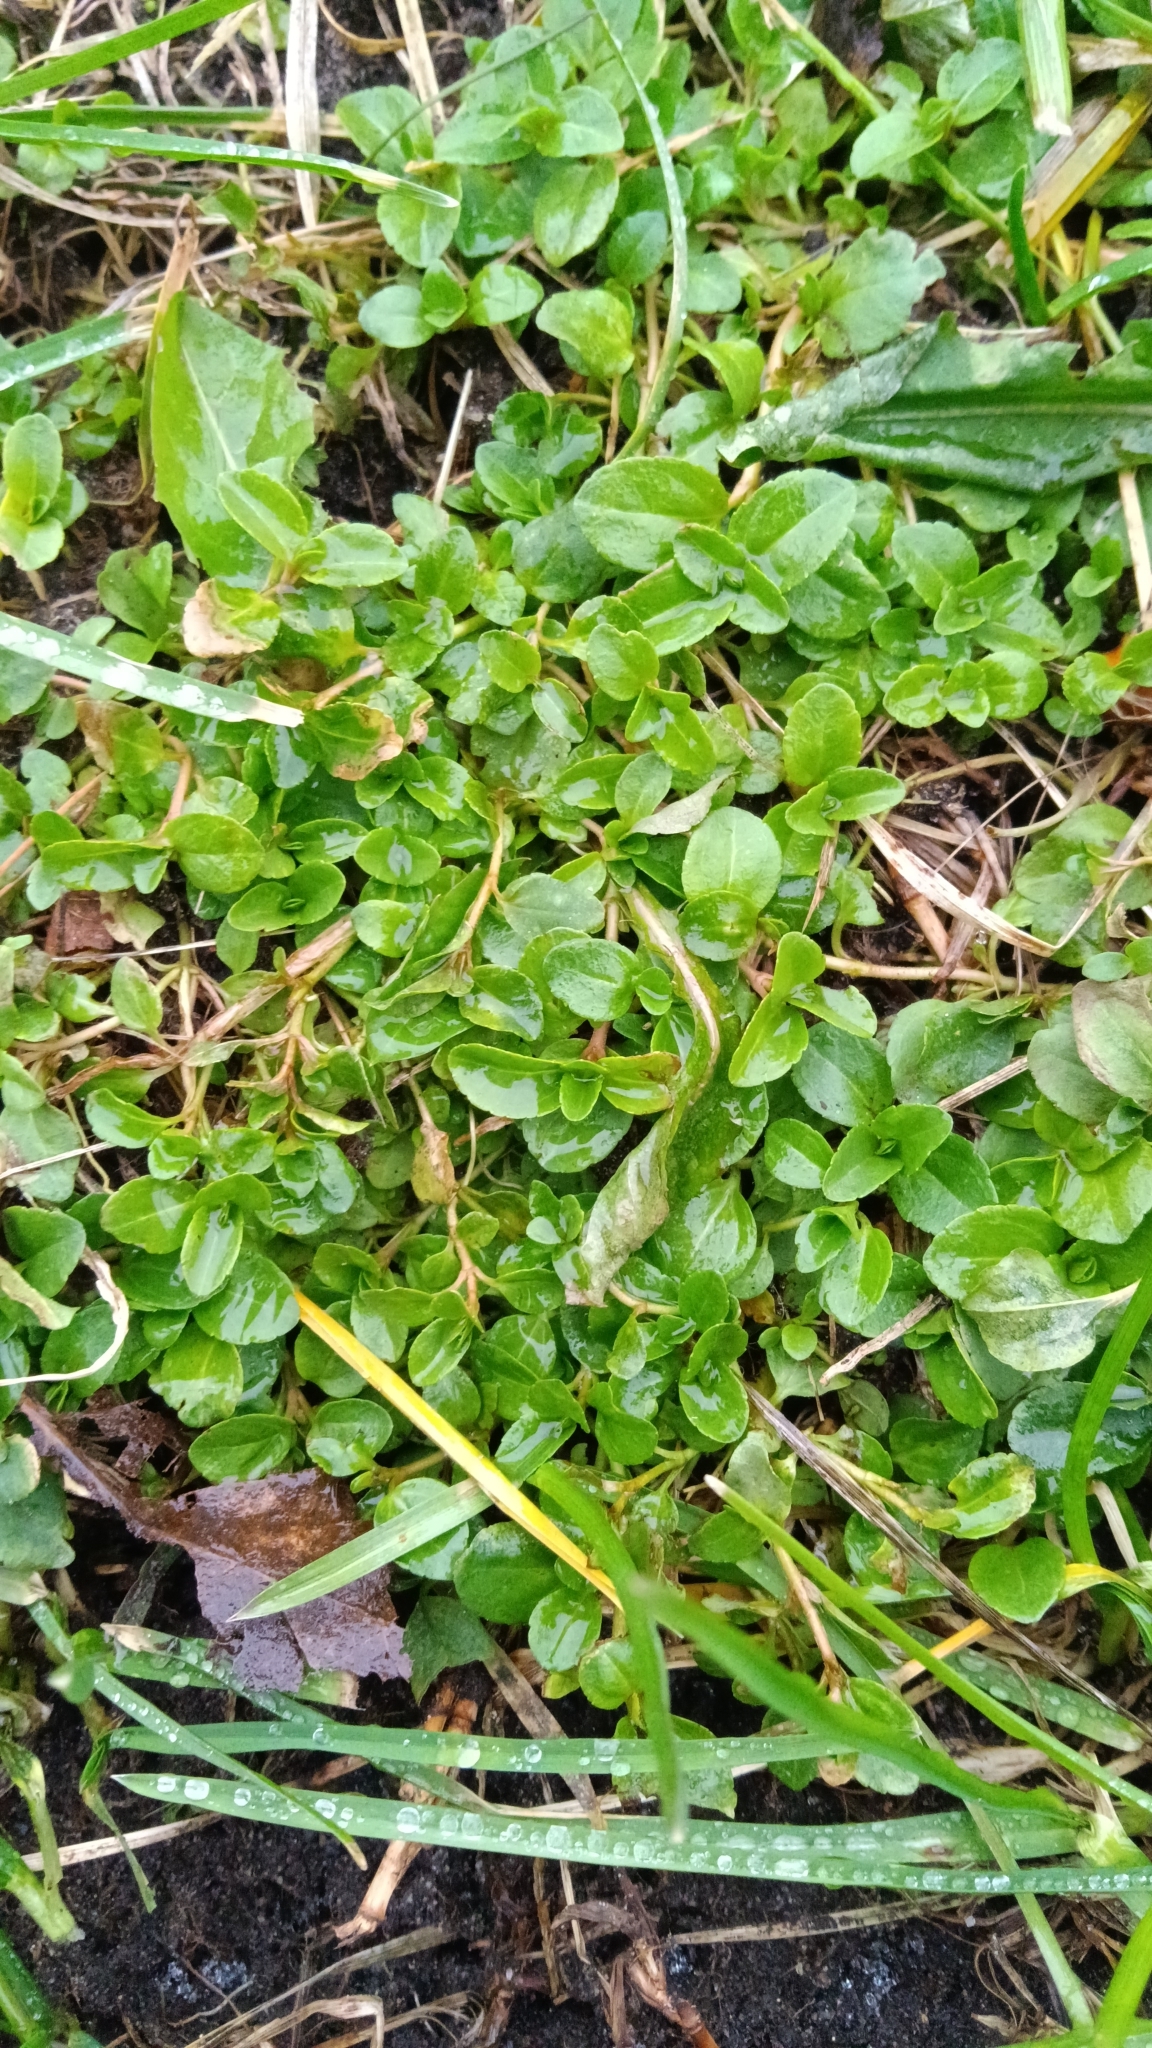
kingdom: Plantae
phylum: Tracheophyta
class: Magnoliopsida
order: Ericales
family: Primulaceae
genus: Lysimachia
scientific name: Lysimachia nummularia
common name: Moneywort
